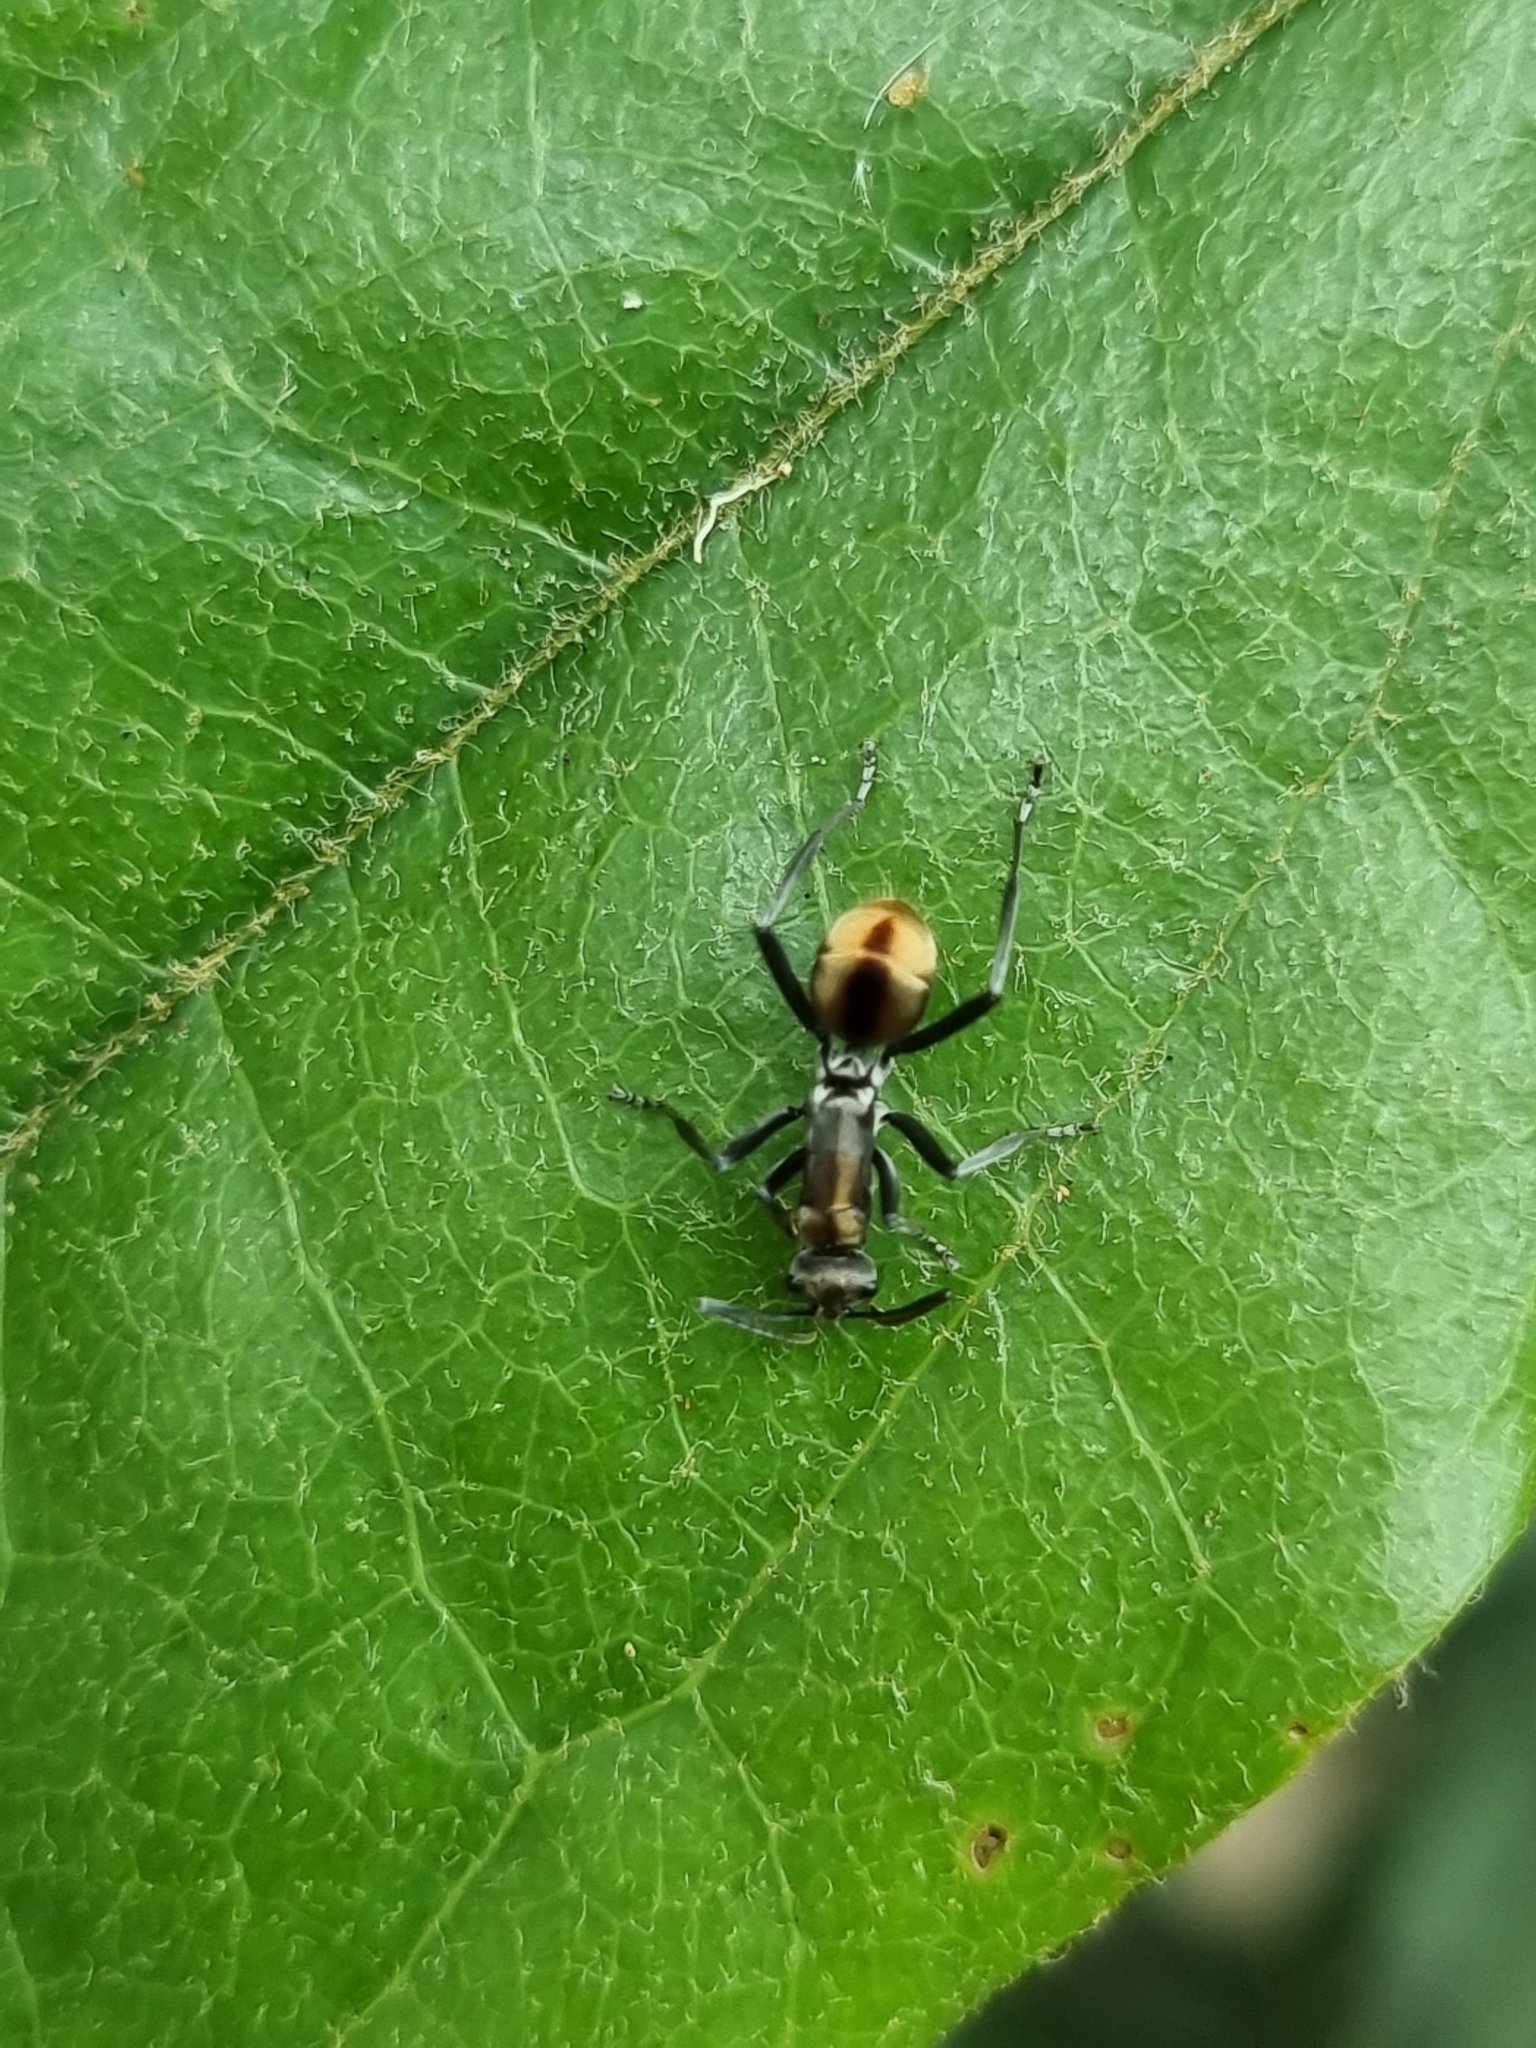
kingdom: Animalia
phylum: Arthropoda
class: Insecta
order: Hymenoptera
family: Formicidae
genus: Polyrhachis
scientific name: Polyrhachis
